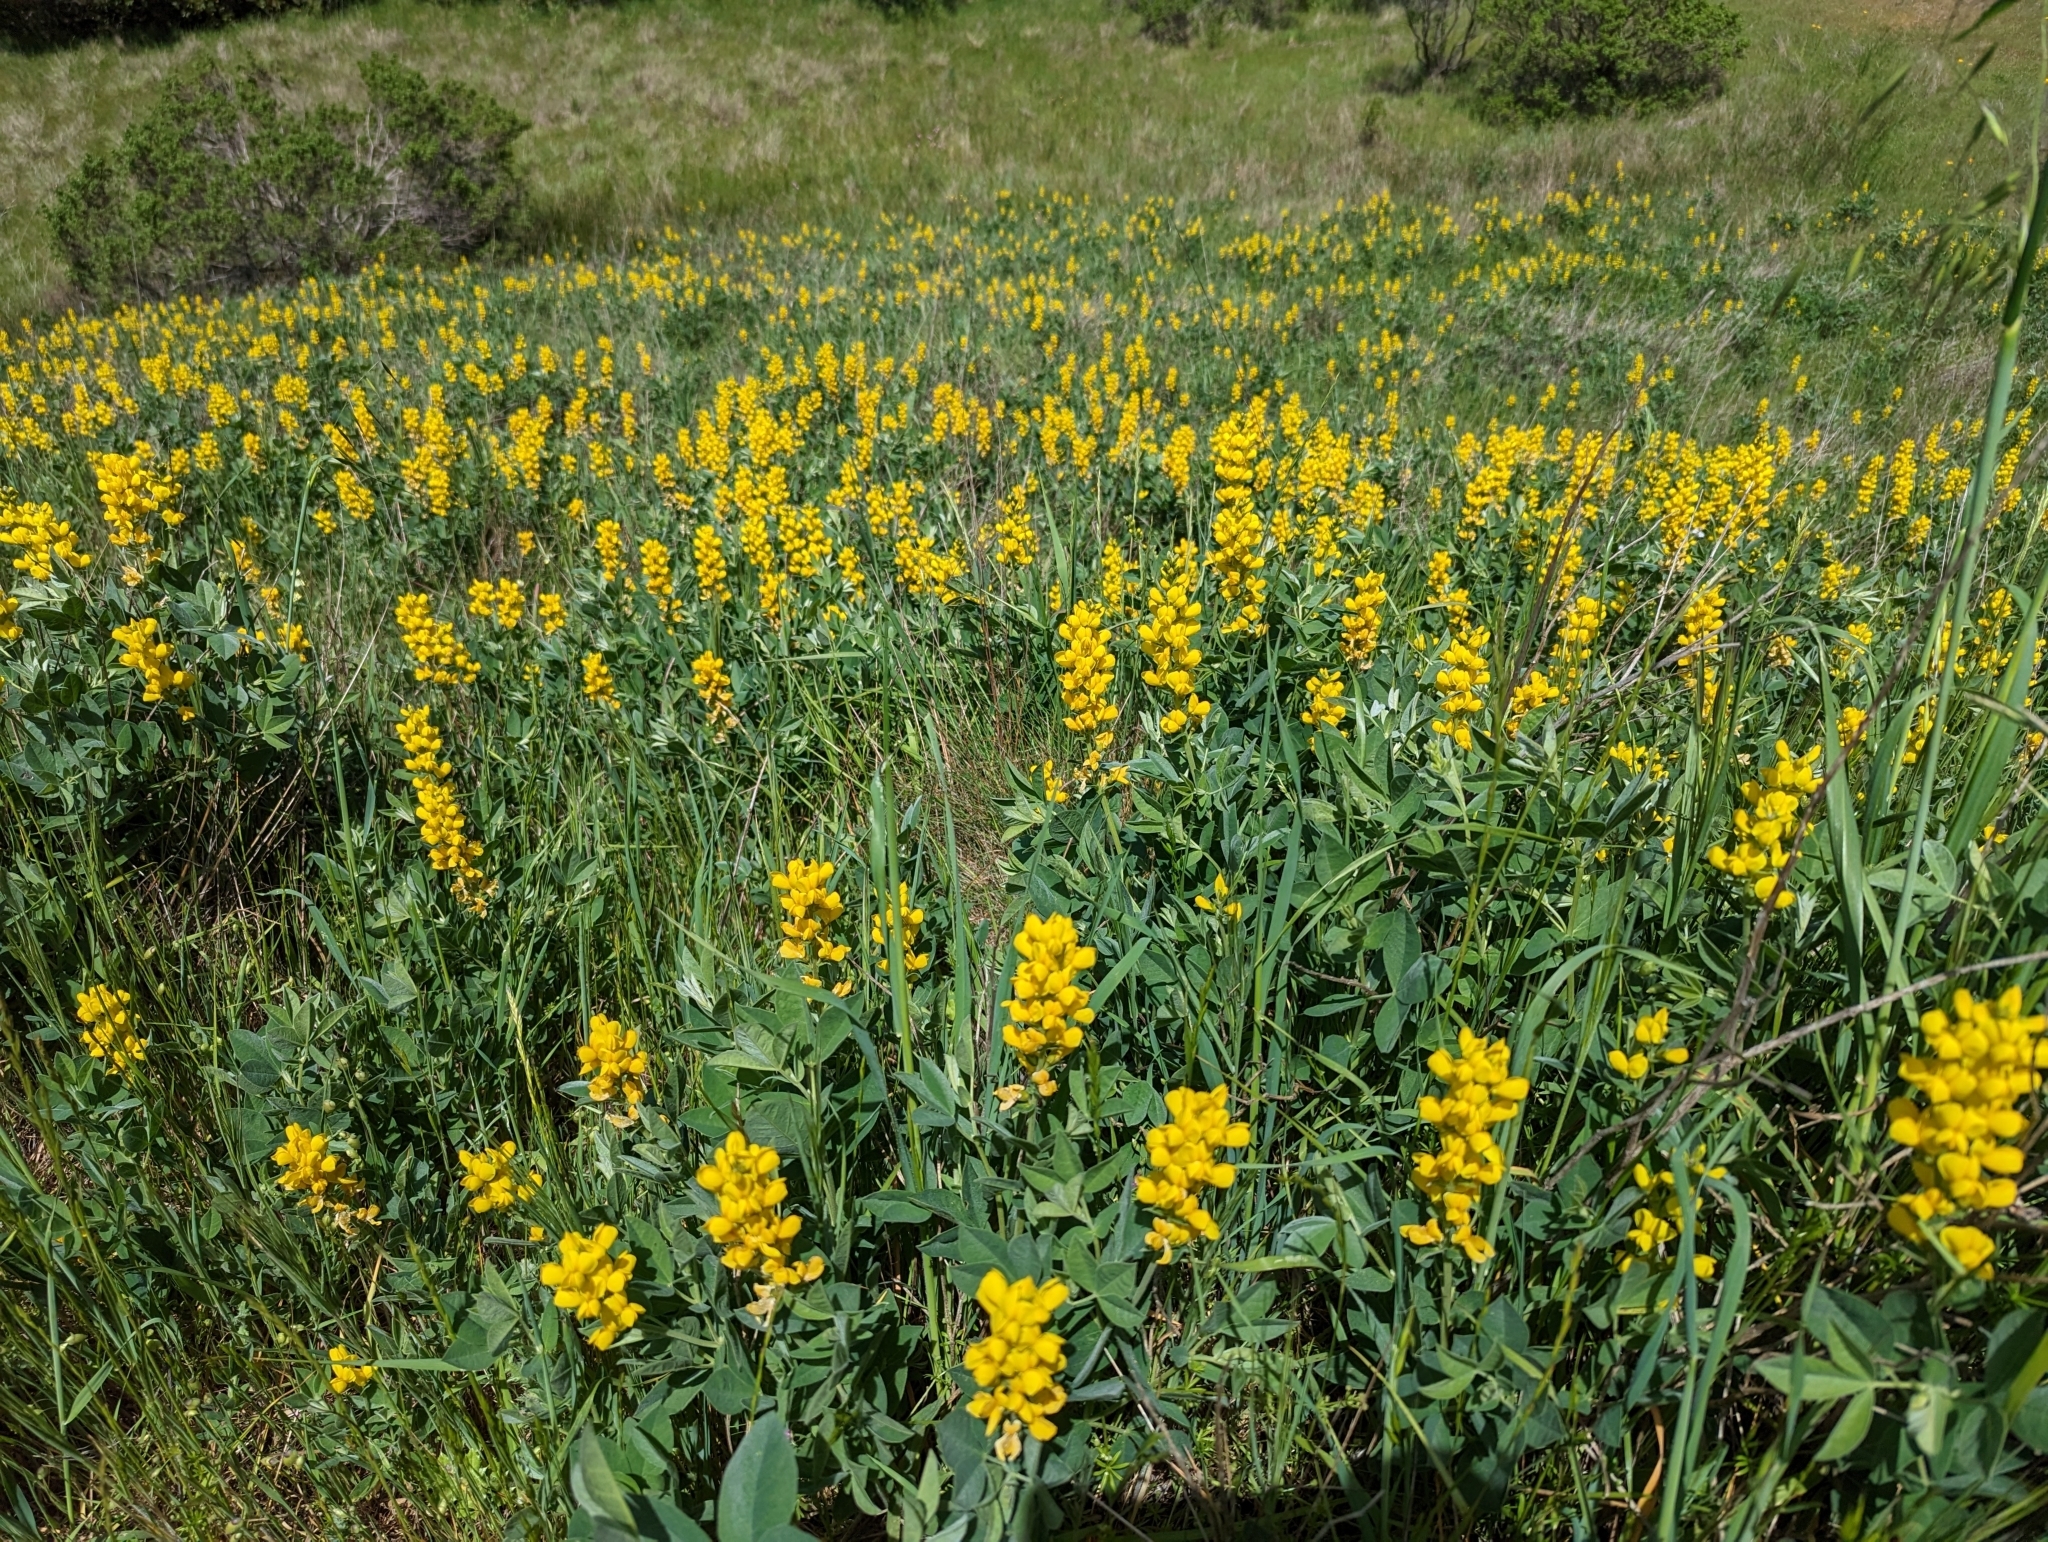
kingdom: Plantae
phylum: Tracheophyta
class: Magnoliopsida
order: Fabales
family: Fabaceae
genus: Thermopsis
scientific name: Thermopsis californica
